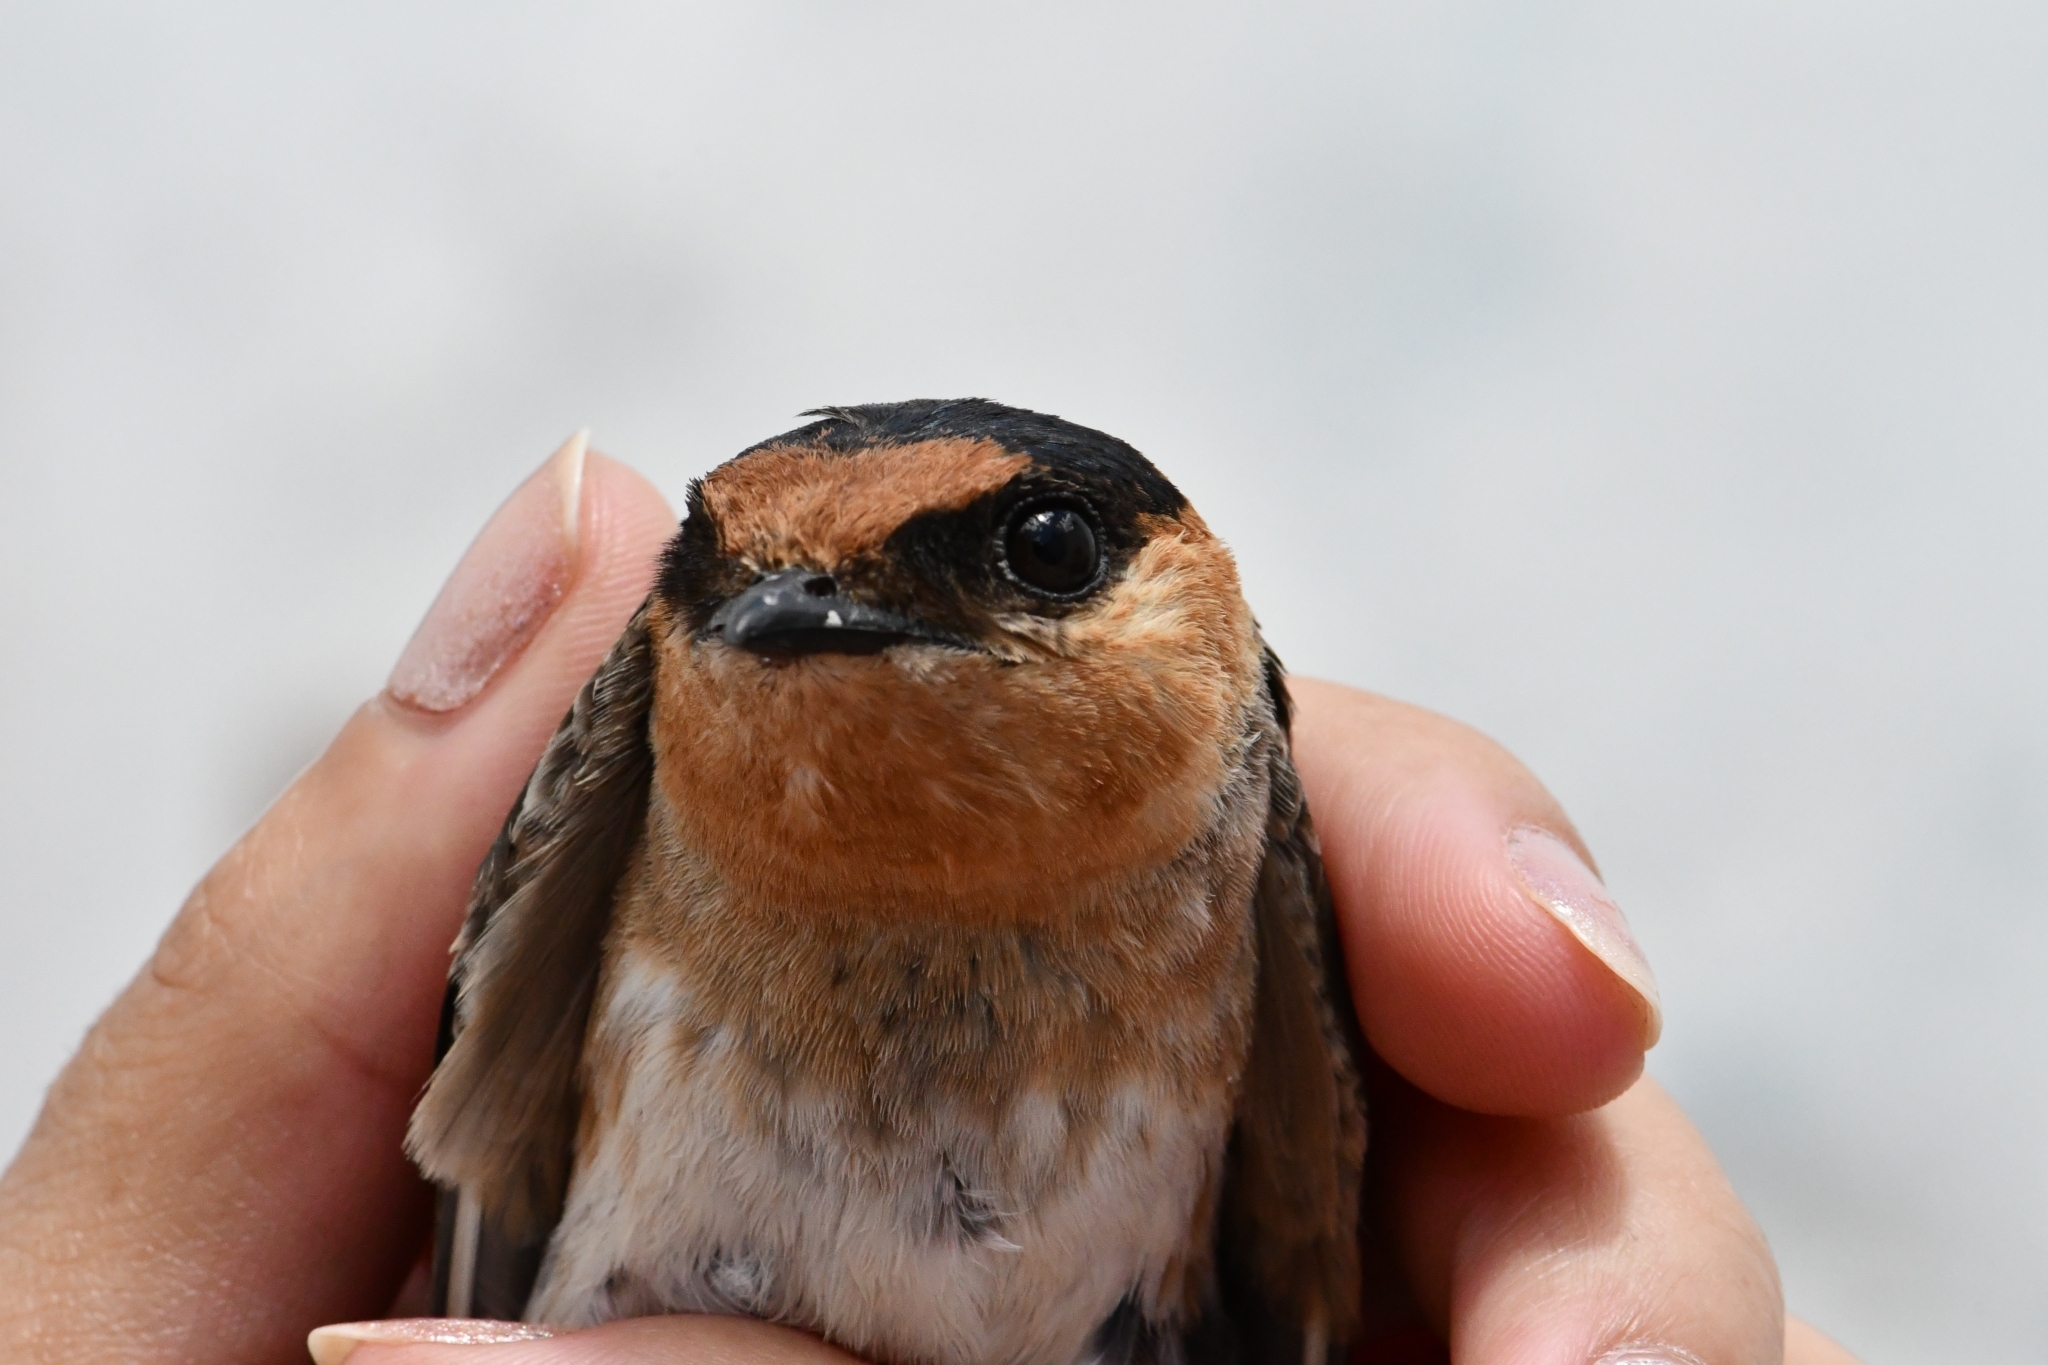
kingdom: Animalia
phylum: Chordata
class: Aves
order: Passeriformes
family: Hirundinidae
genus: Petrochelidon
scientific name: Petrochelidon fulva
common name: Cave swallow
